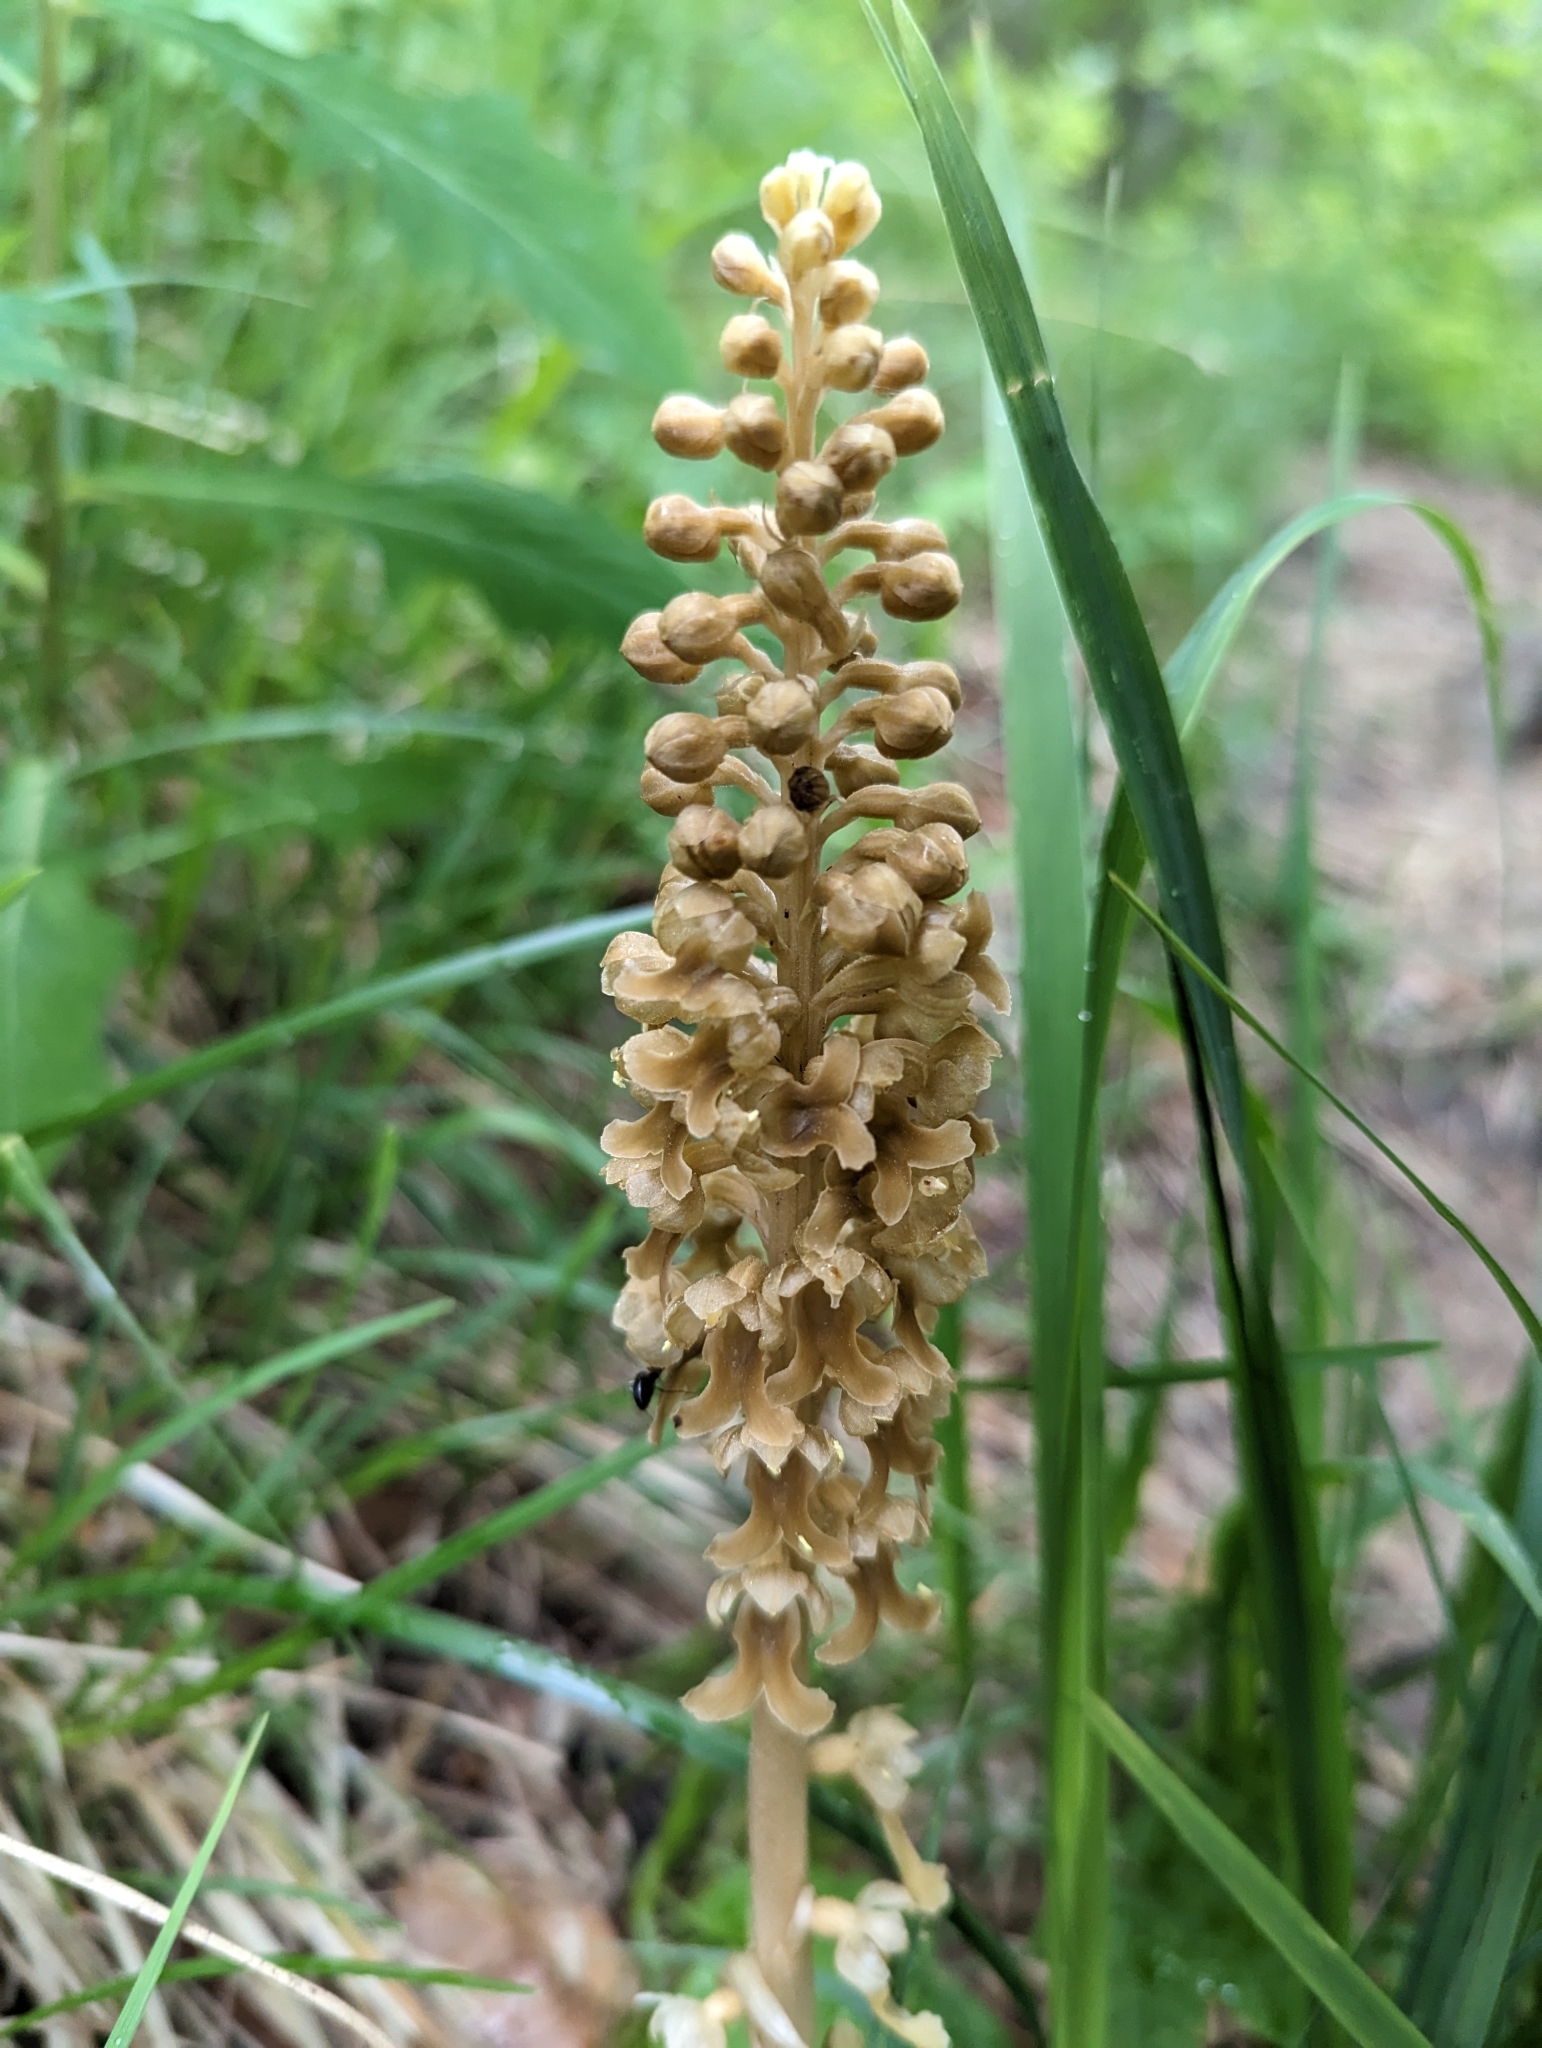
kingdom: Plantae
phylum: Tracheophyta
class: Liliopsida
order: Asparagales
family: Orchidaceae
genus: Neottia
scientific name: Neottia nidus-avis
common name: Bird's-nest orchid
